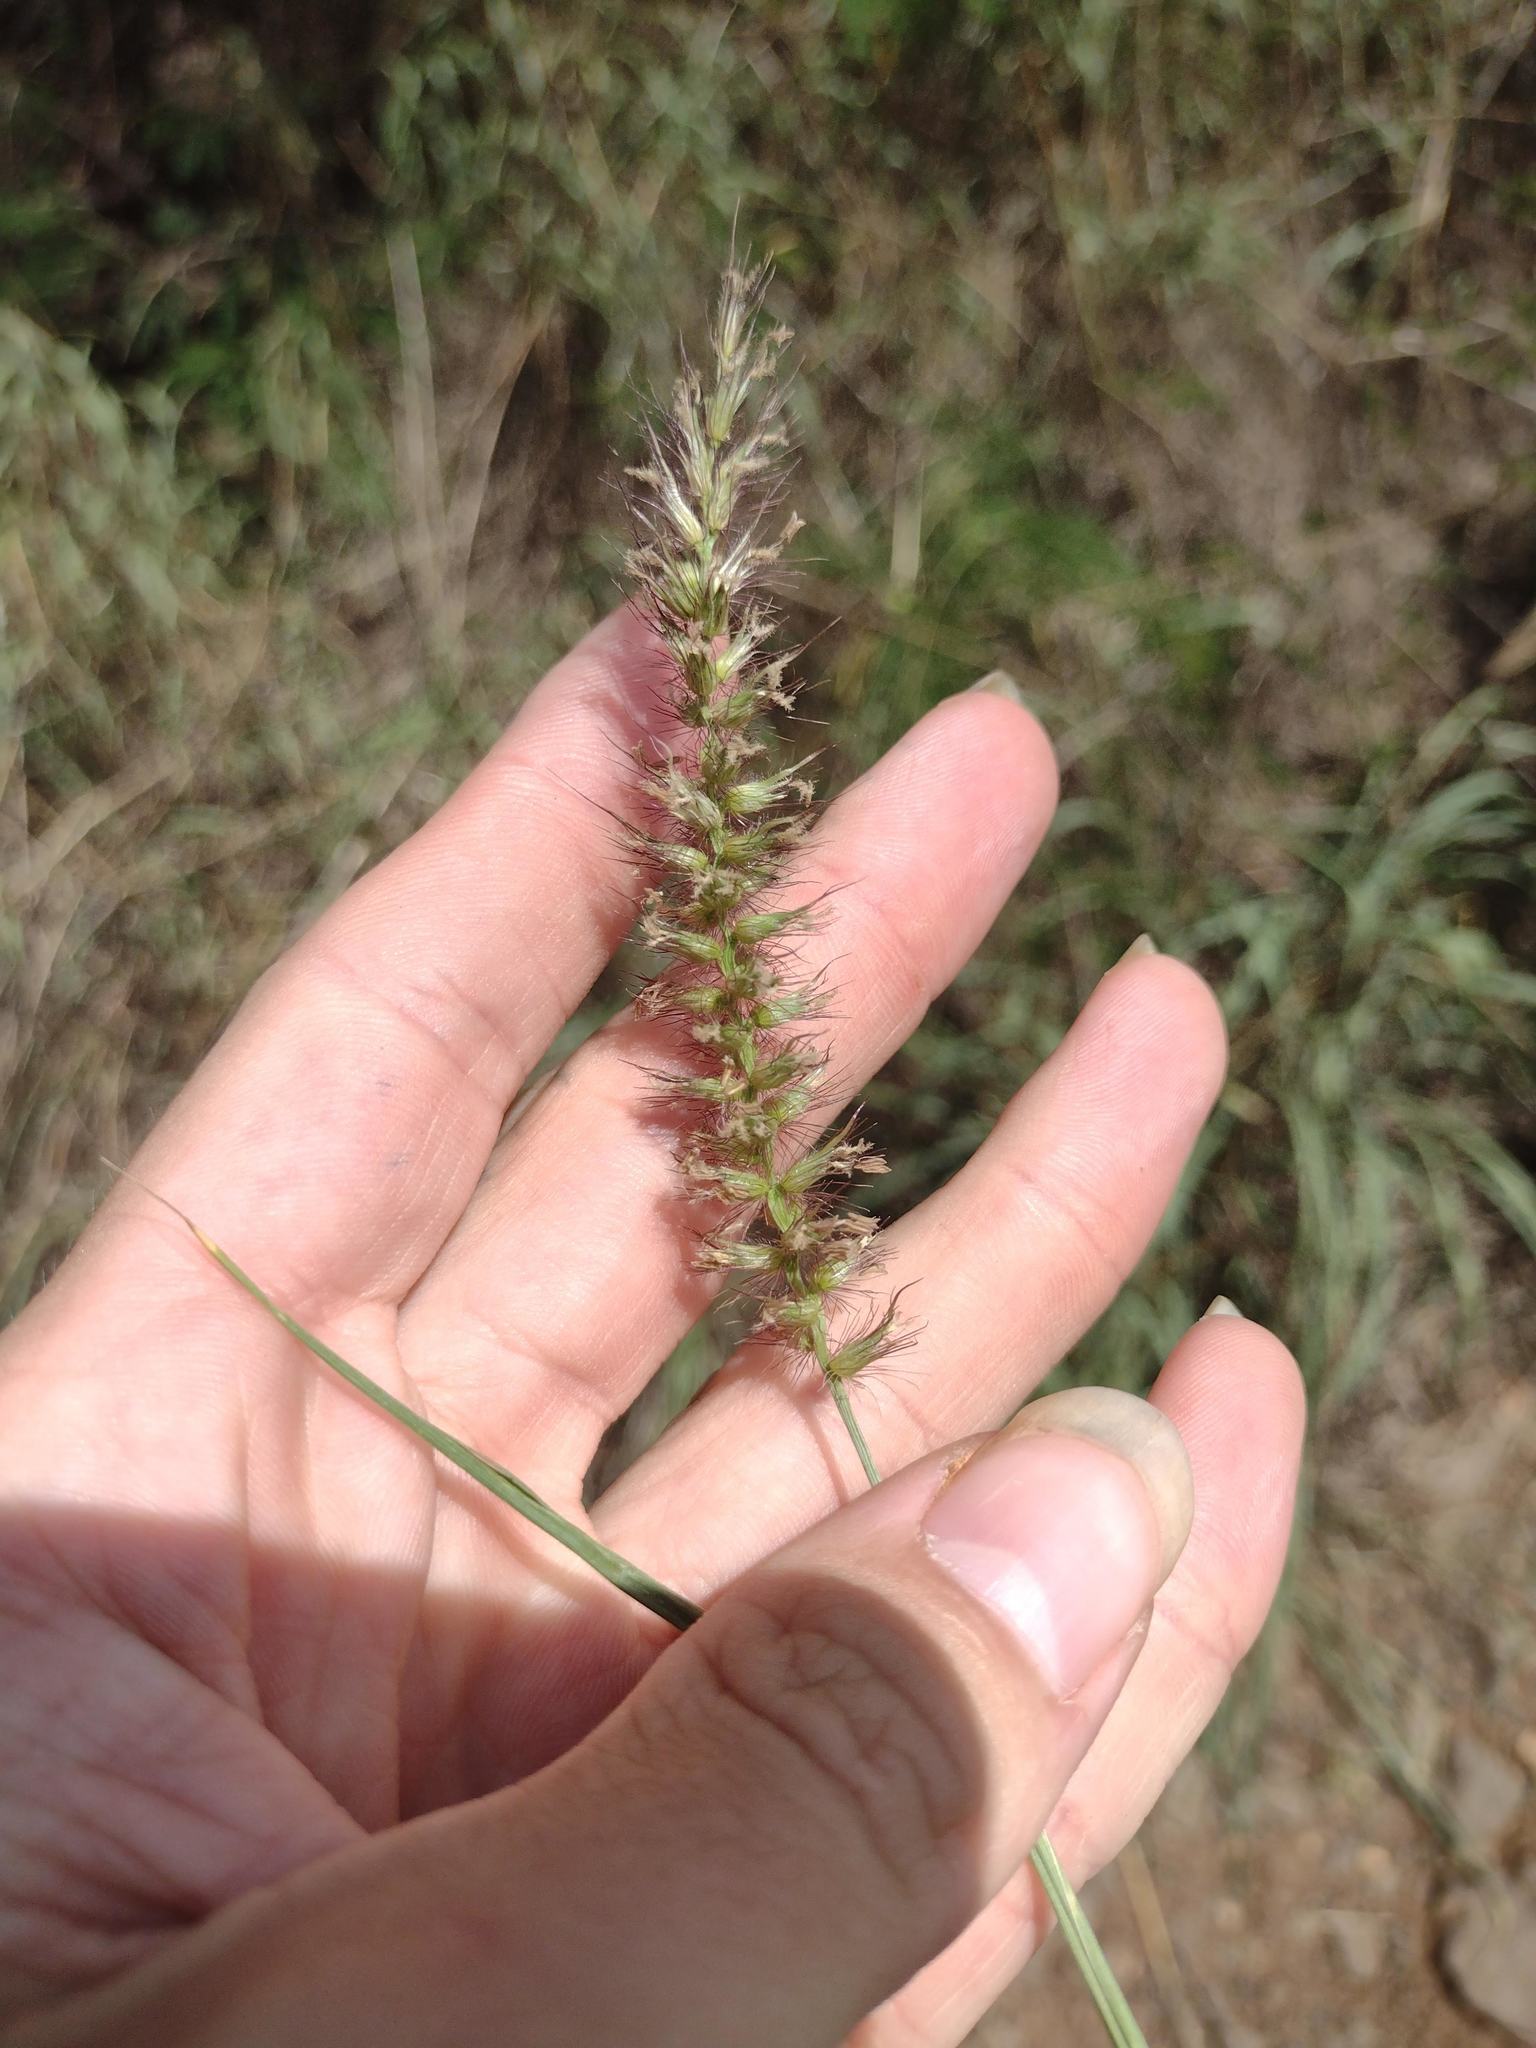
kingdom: Plantae
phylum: Tracheophyta
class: Liliopsida
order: Poales
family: Poaceae
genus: Cenchrus
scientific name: Cenchrus ciliaris
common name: Buffelgrass
